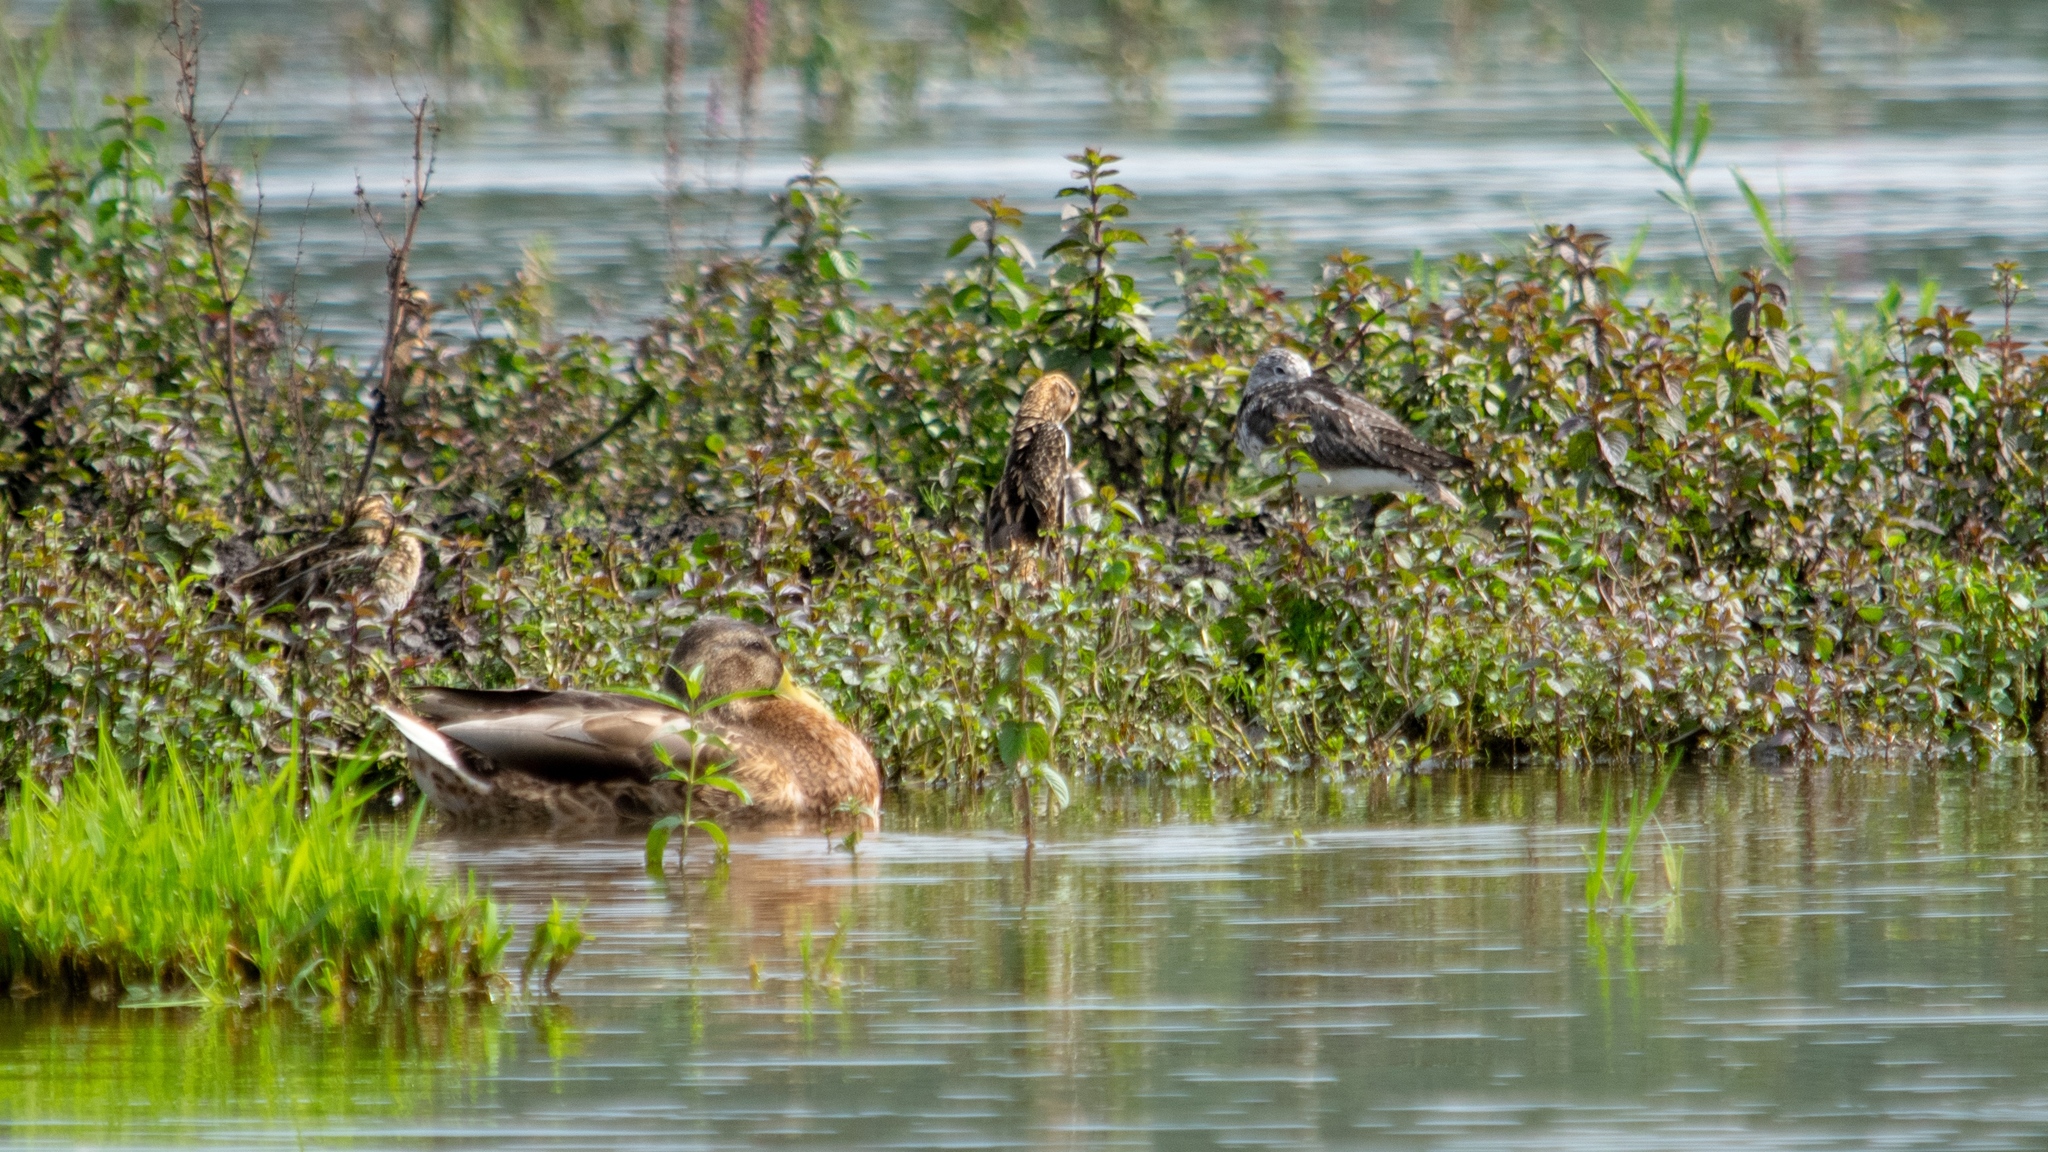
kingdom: Animalia
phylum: Chordata
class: Aves
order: Charadriiformes
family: Scolopacidae
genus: Tringa
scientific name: Tringa nebularia
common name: Common greenshank
